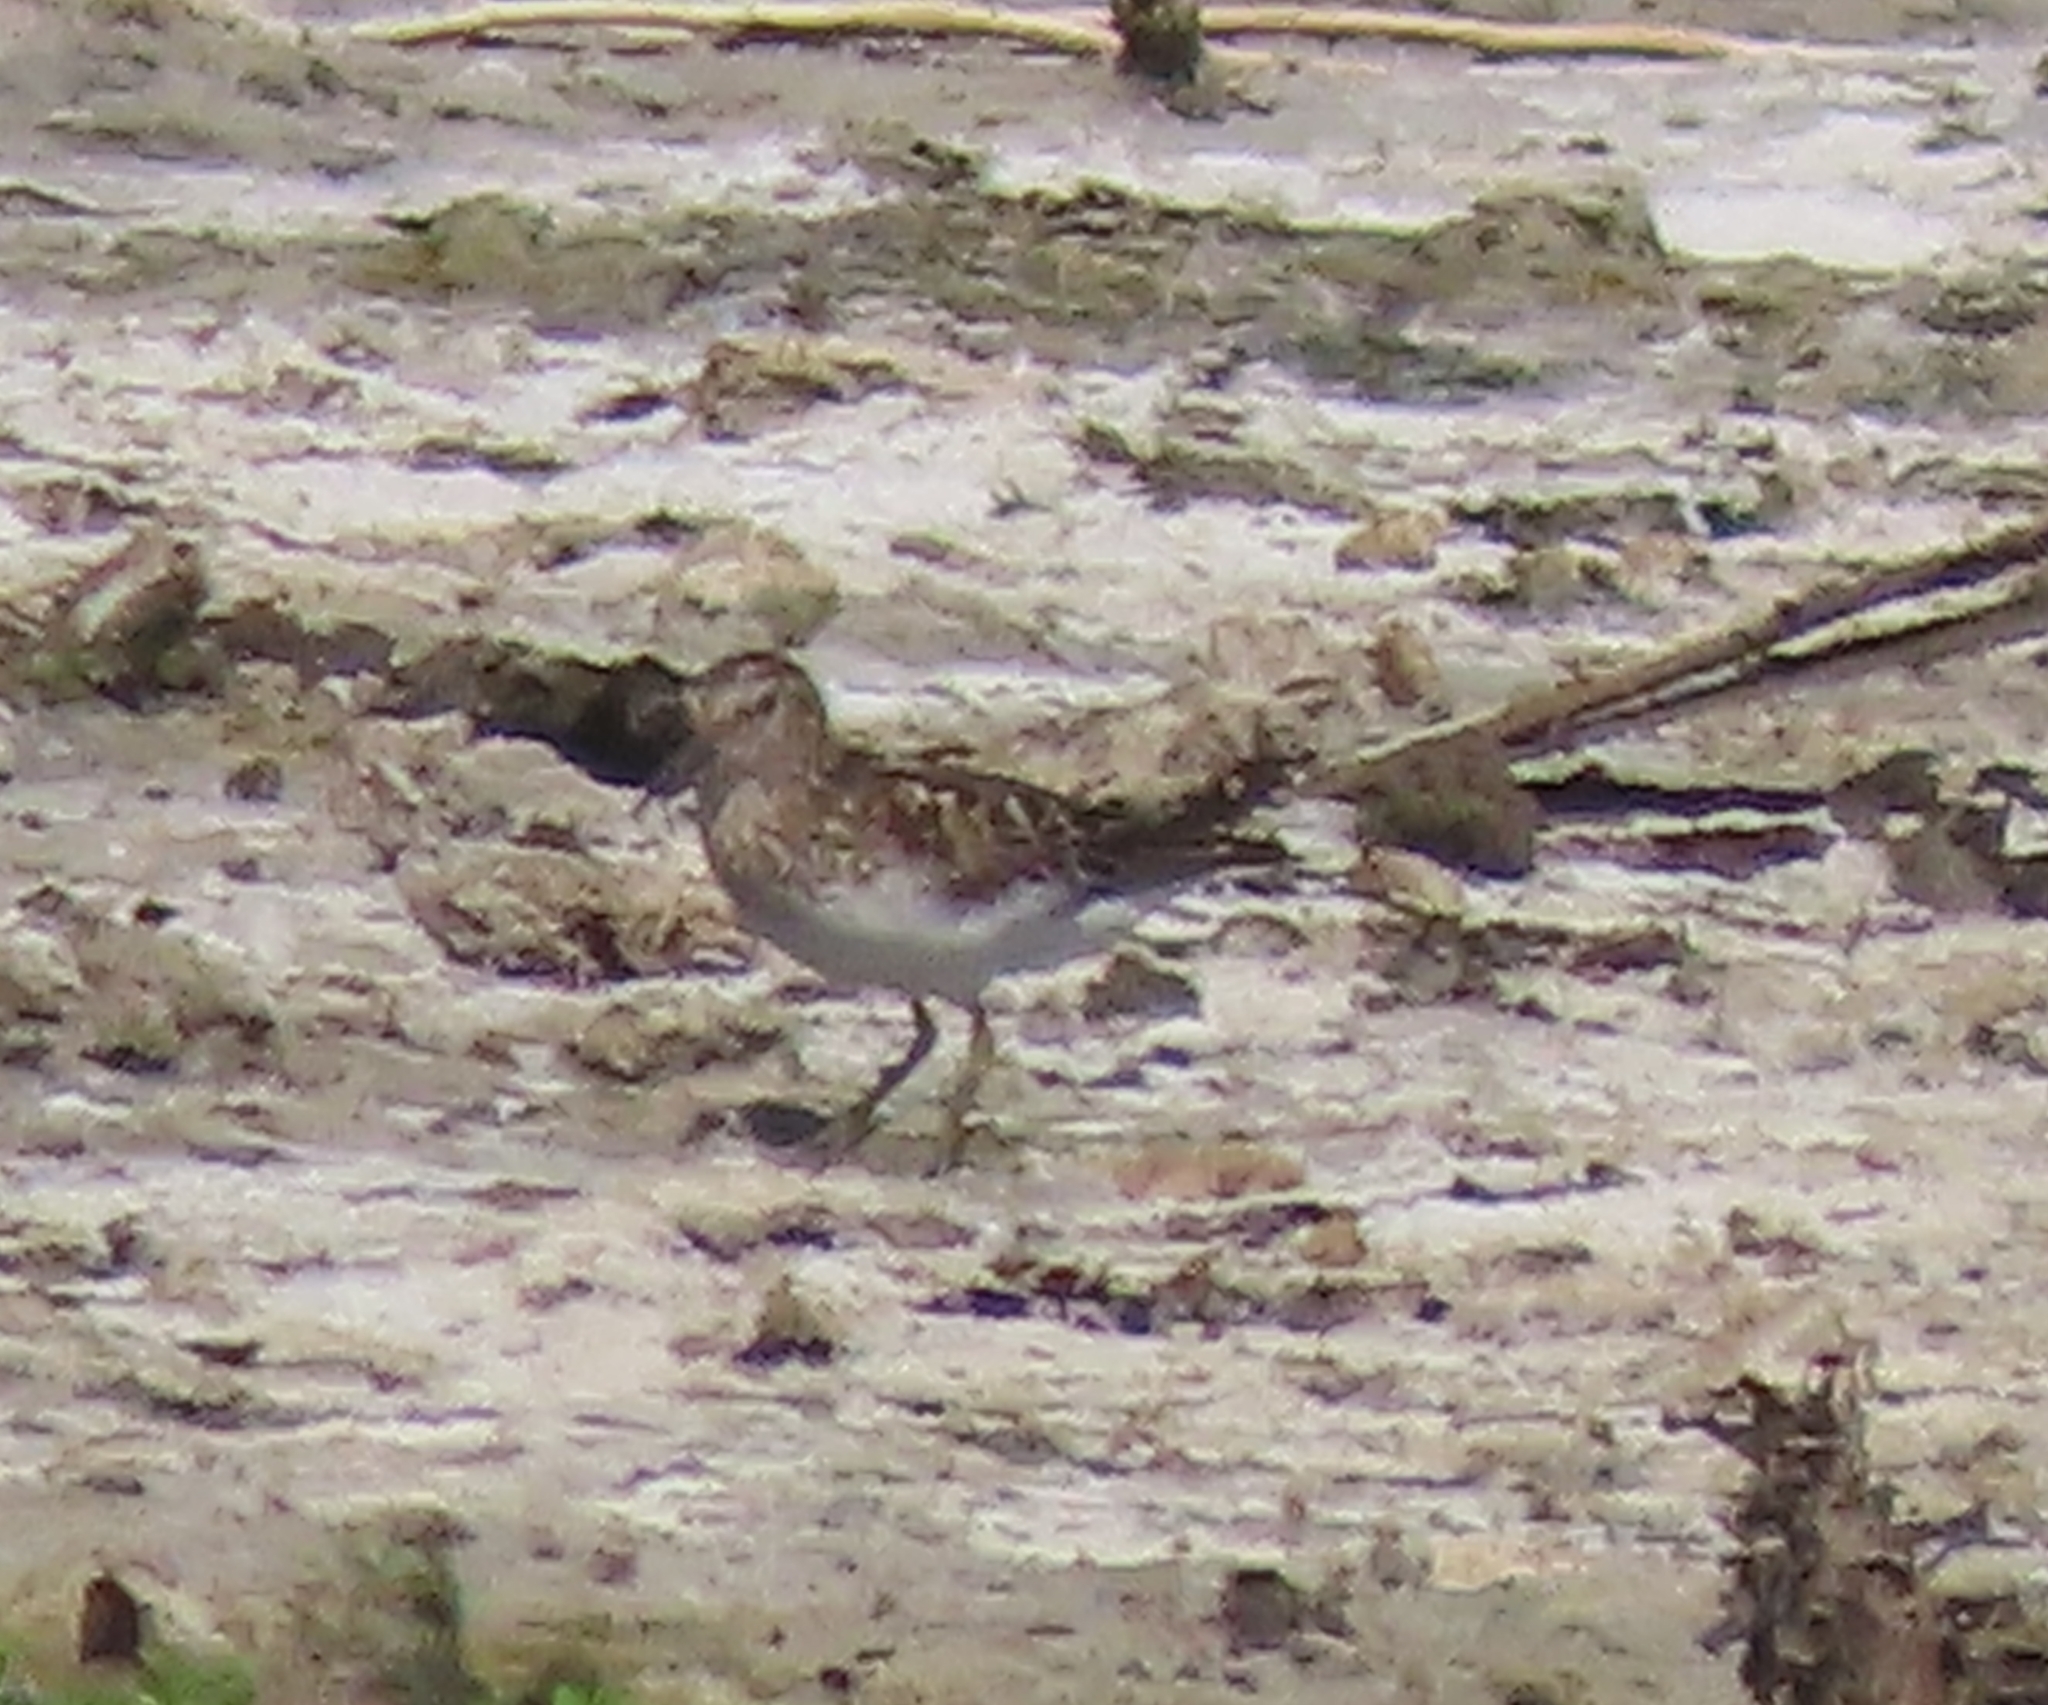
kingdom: Animalia
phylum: Chordata
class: Aves
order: Charadriiformes
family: Scolopacidae
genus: Calidris
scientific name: Calidris minutilla
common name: Least sandpiper
